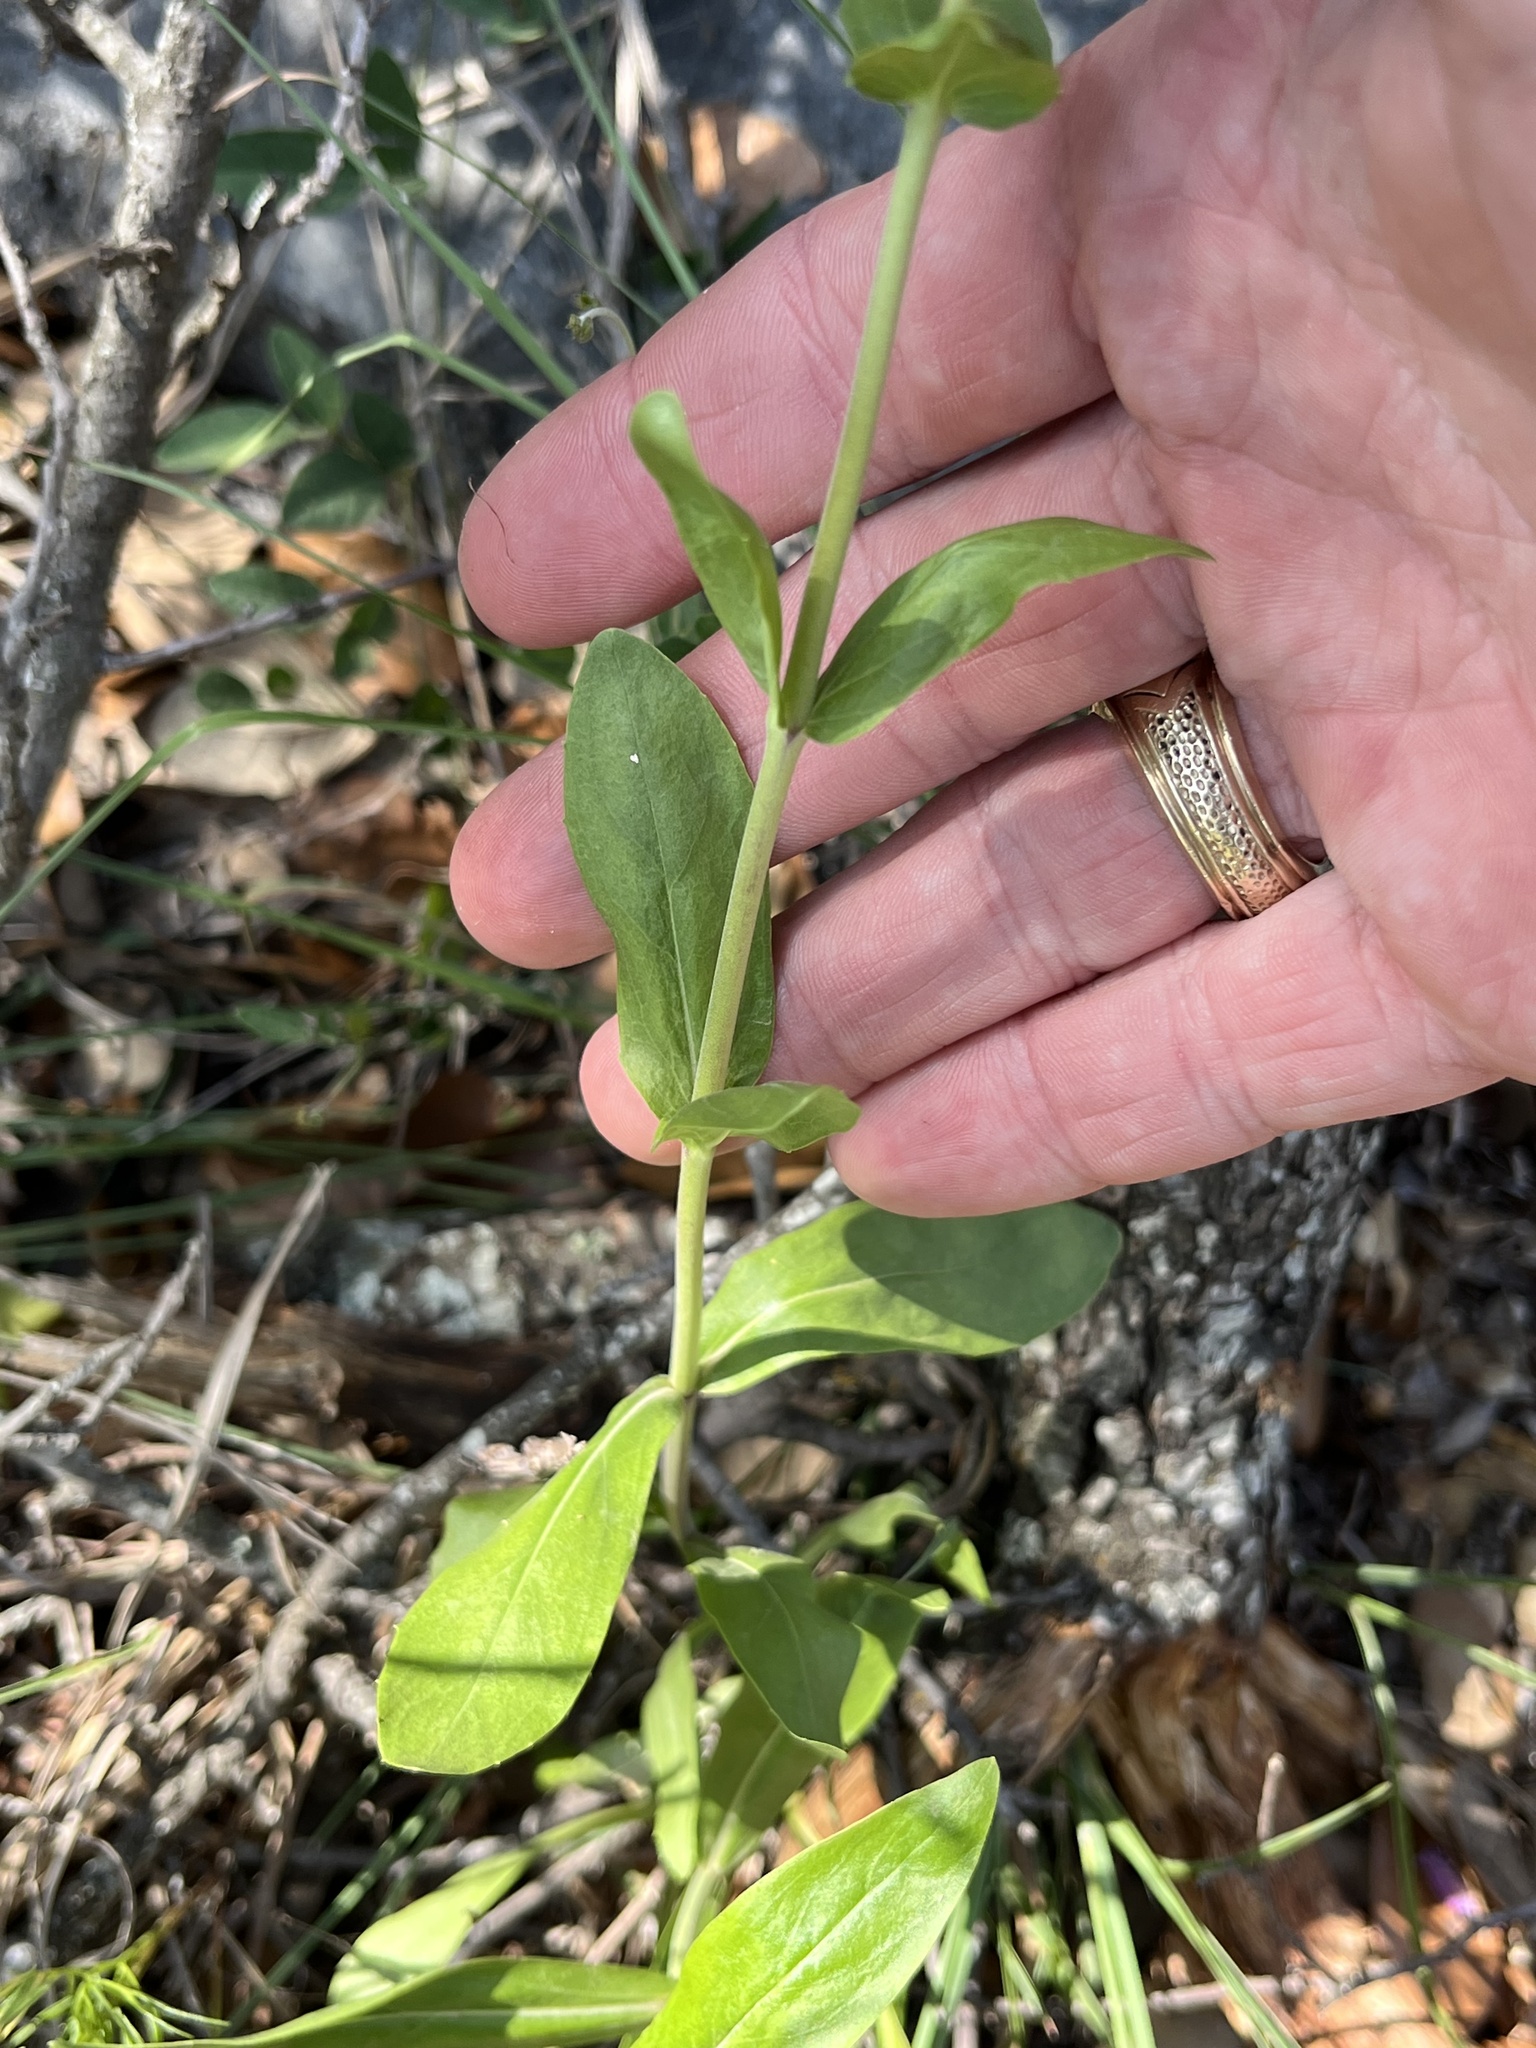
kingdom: Plantae
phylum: Tracheophyta
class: Magnoliopsida
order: Lamiales
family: Plantaginaceae
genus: Penstemon
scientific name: Penstemon triflorus
